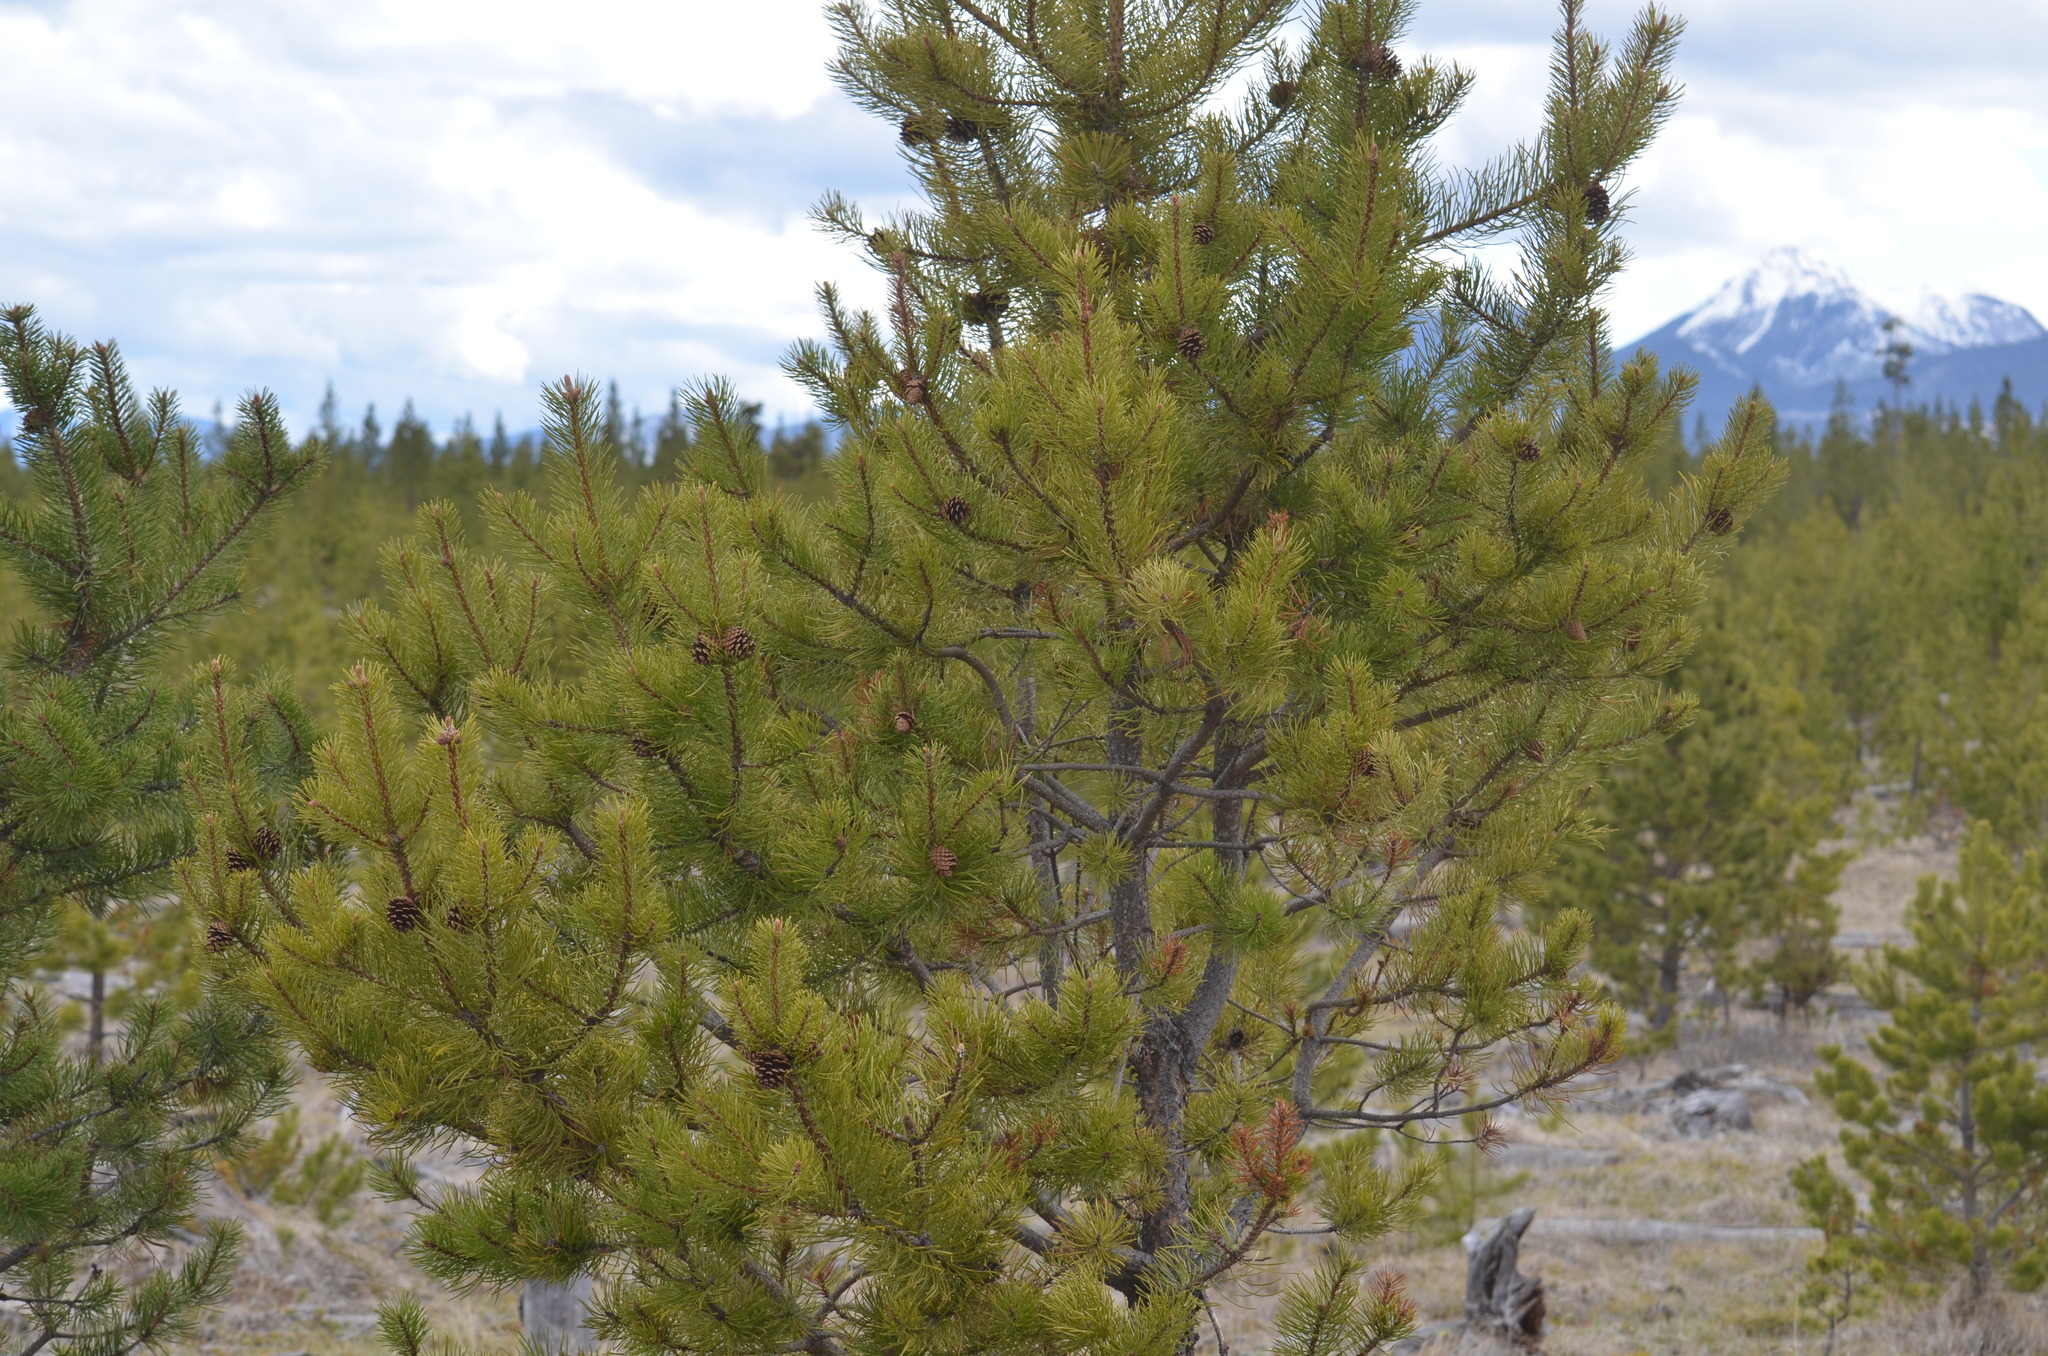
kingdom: Plantae
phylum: Tracheophyta
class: Pinopsida
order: Pinales
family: Pinaceae
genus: Pinus
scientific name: Pinus contorta
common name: Lodgepole pine
